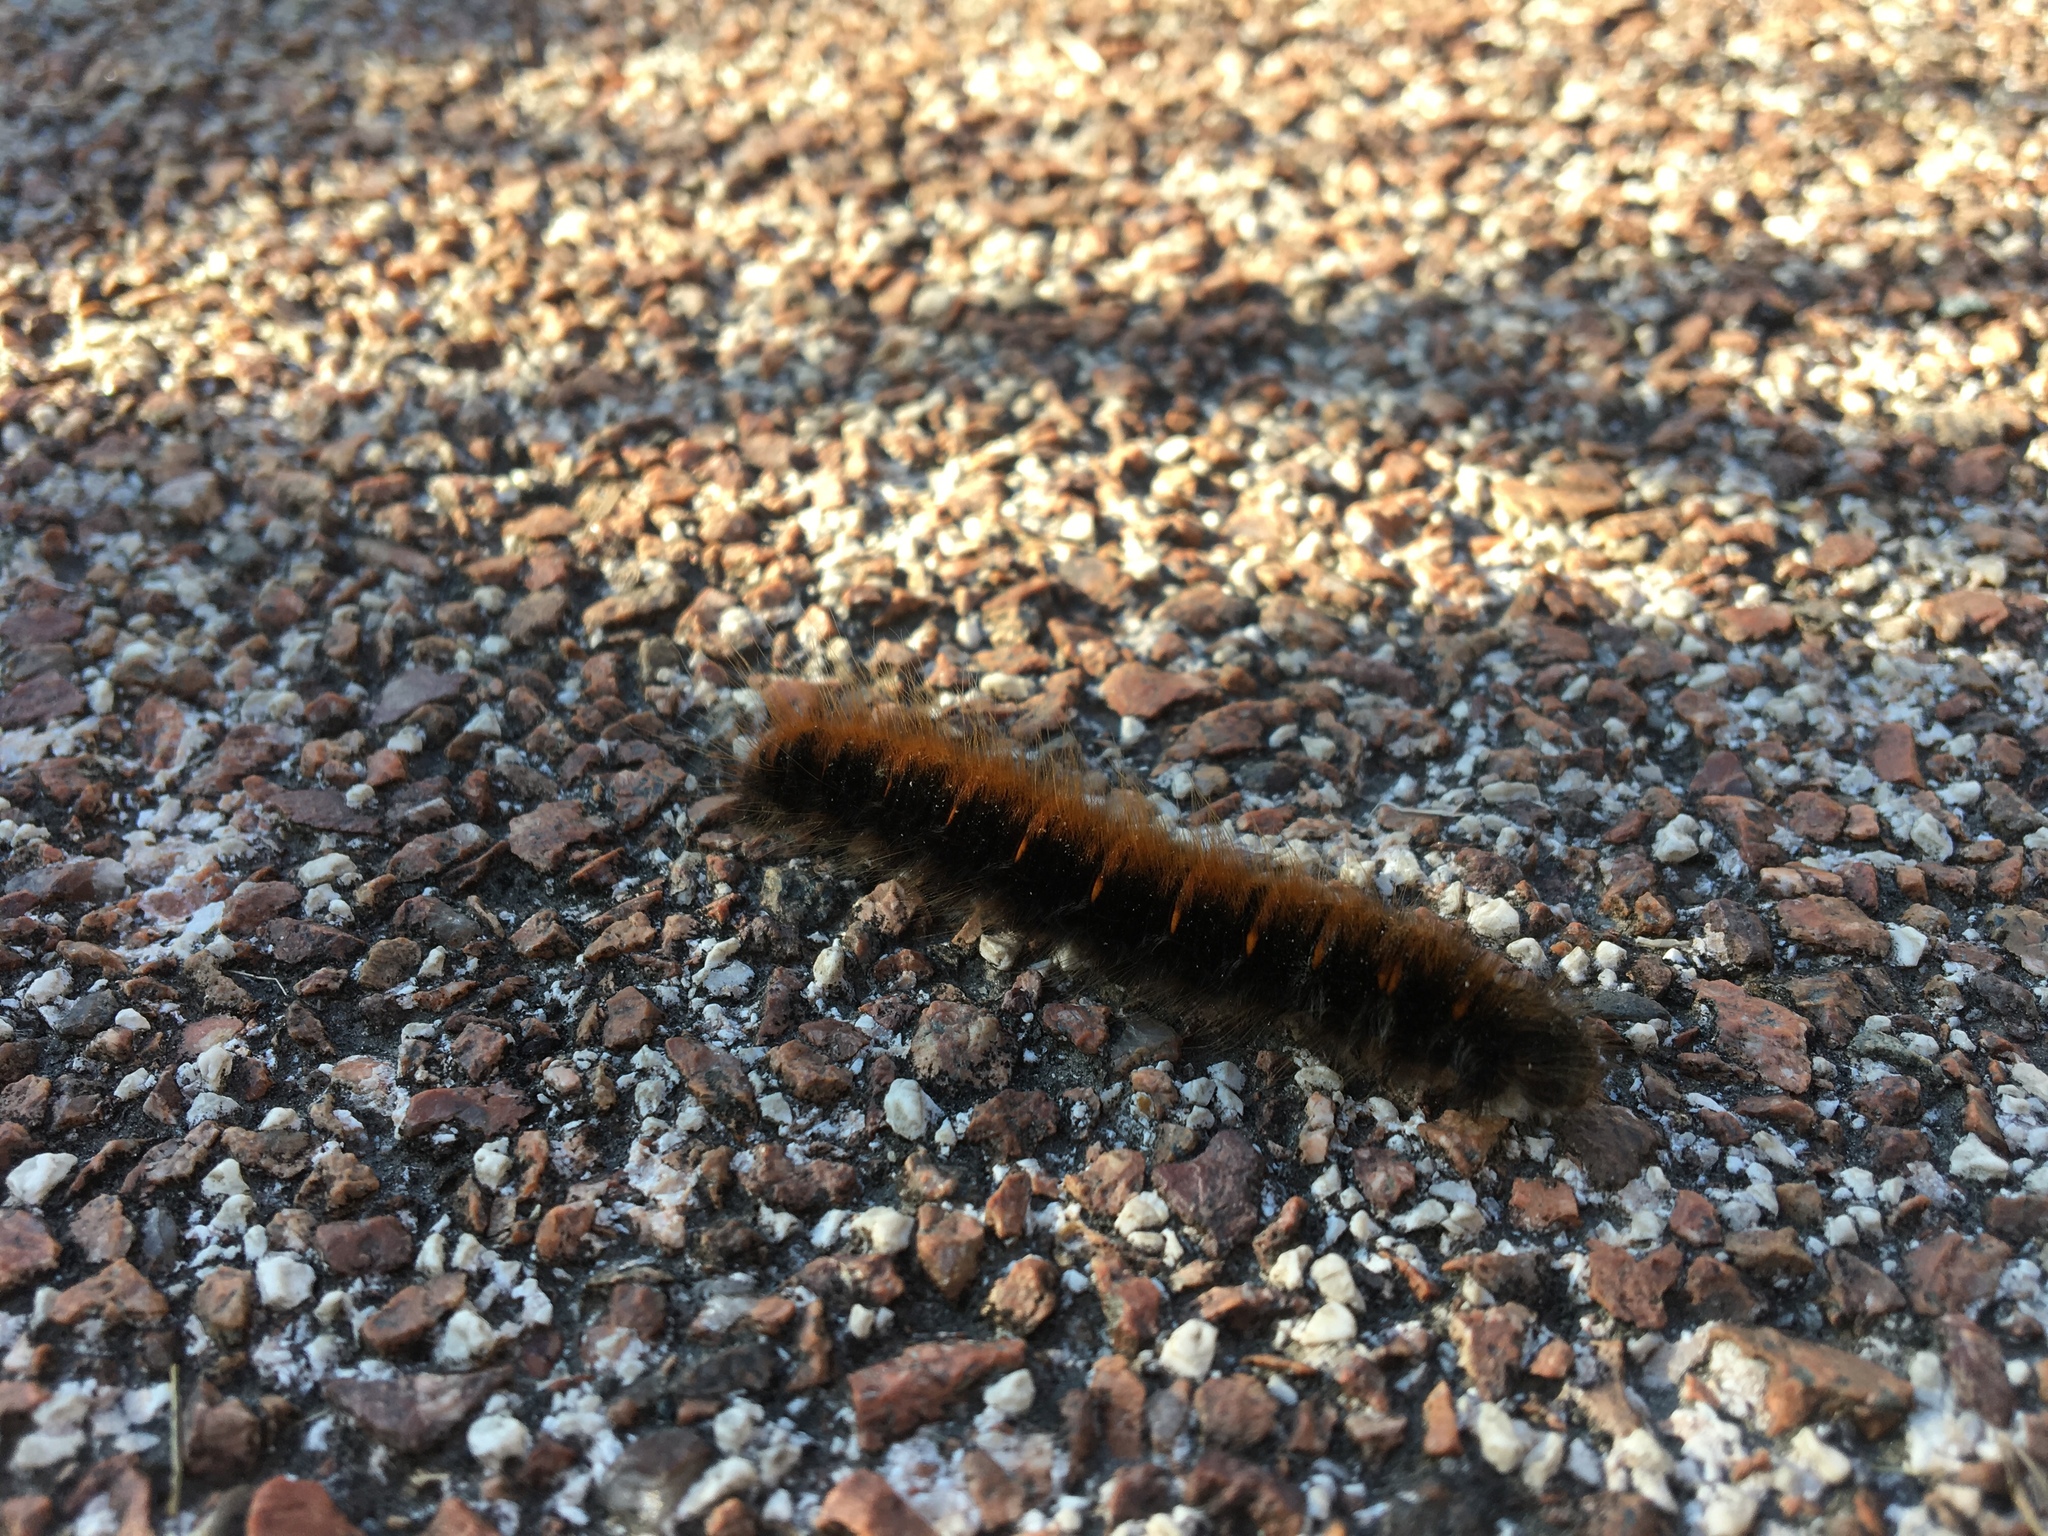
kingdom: Animalia
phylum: Arthropoda
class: Insecta
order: Lepidoptera
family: Lasiocampidae
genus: Macrothylacia
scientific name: Macrothylacia rubi
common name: Fox moth
